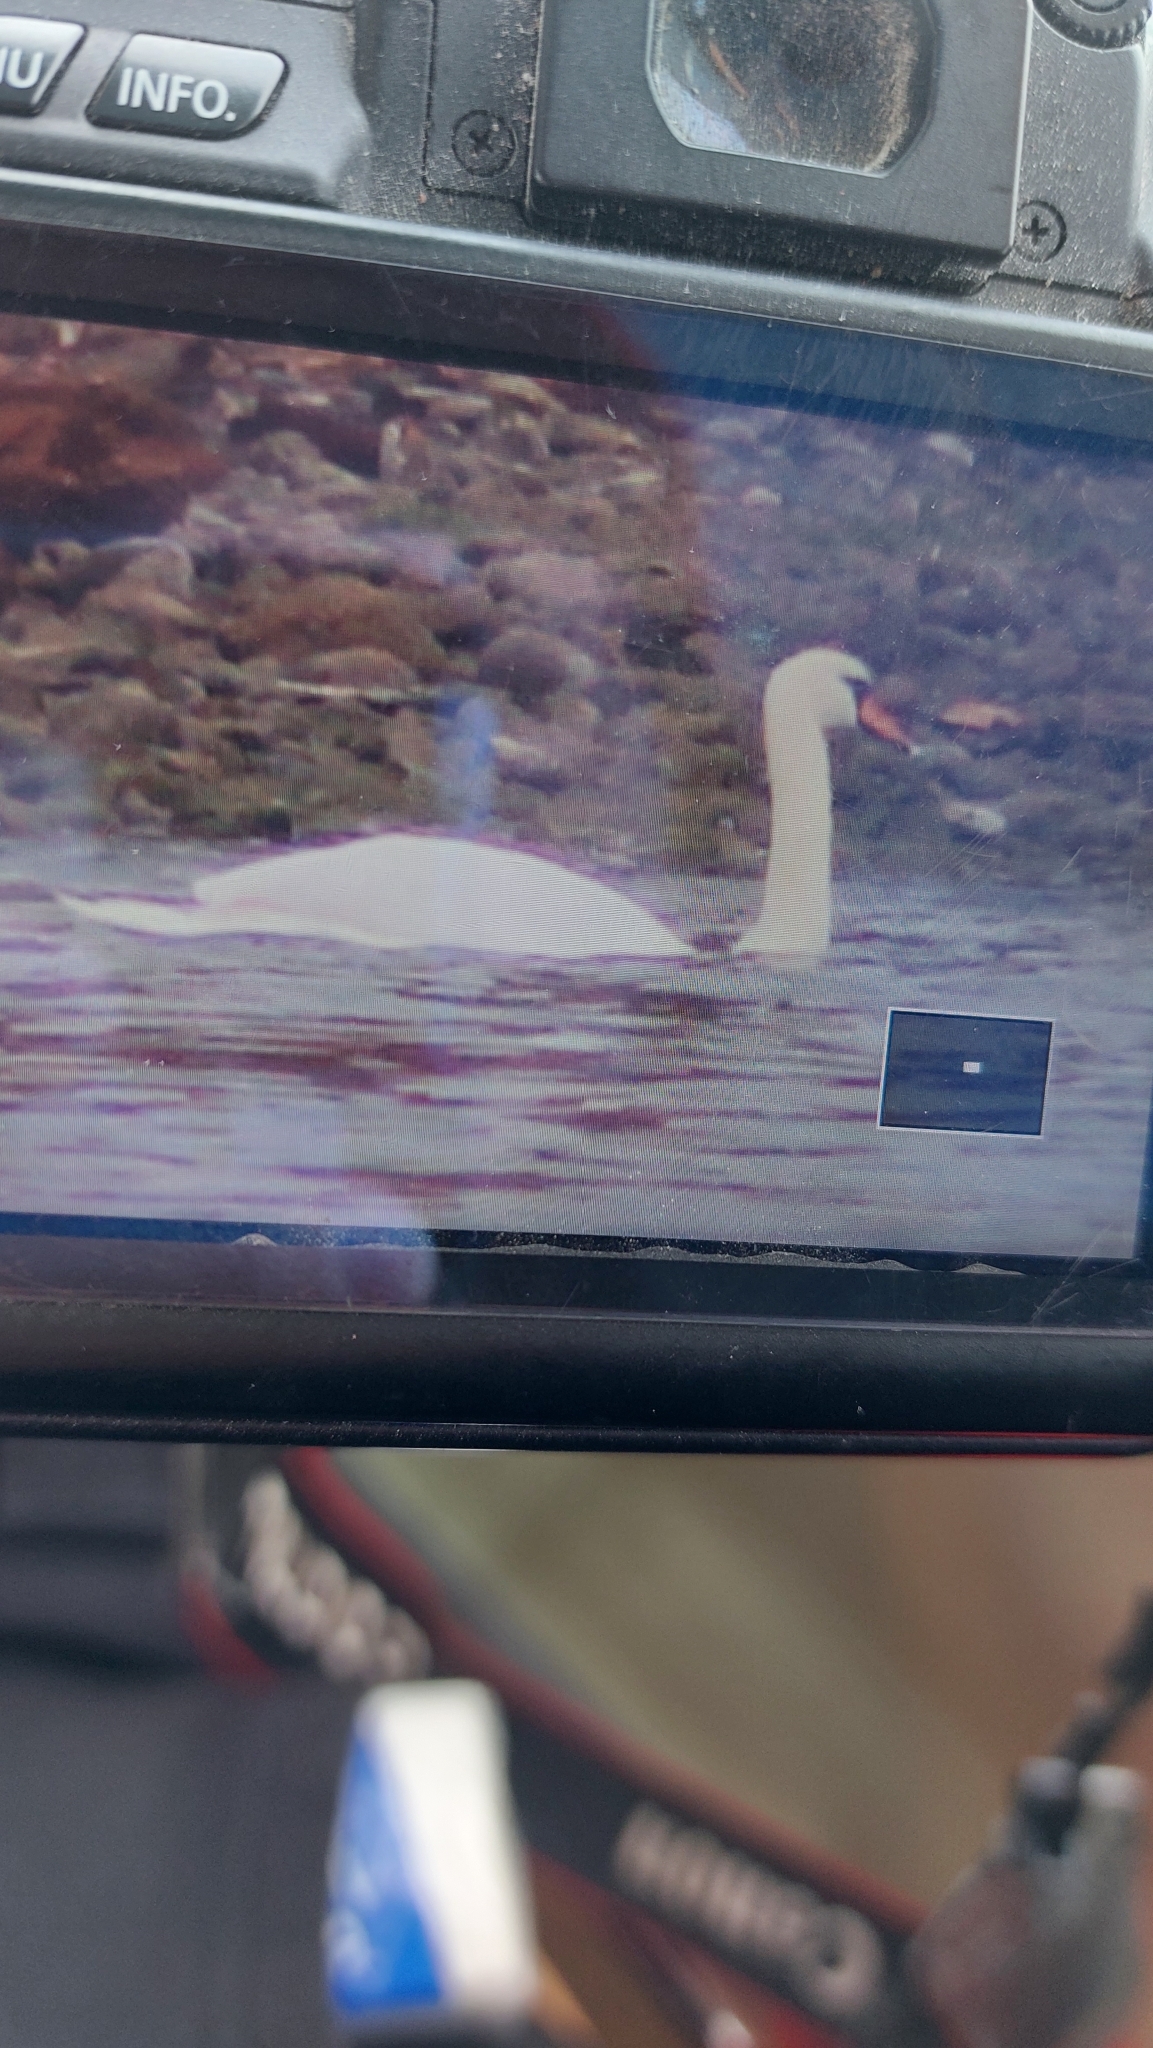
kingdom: Animalia
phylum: Chordata
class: Aves
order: Anseriformes
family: Anatidae
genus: Cygnus
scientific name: Cygnus olor
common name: Mute swan
